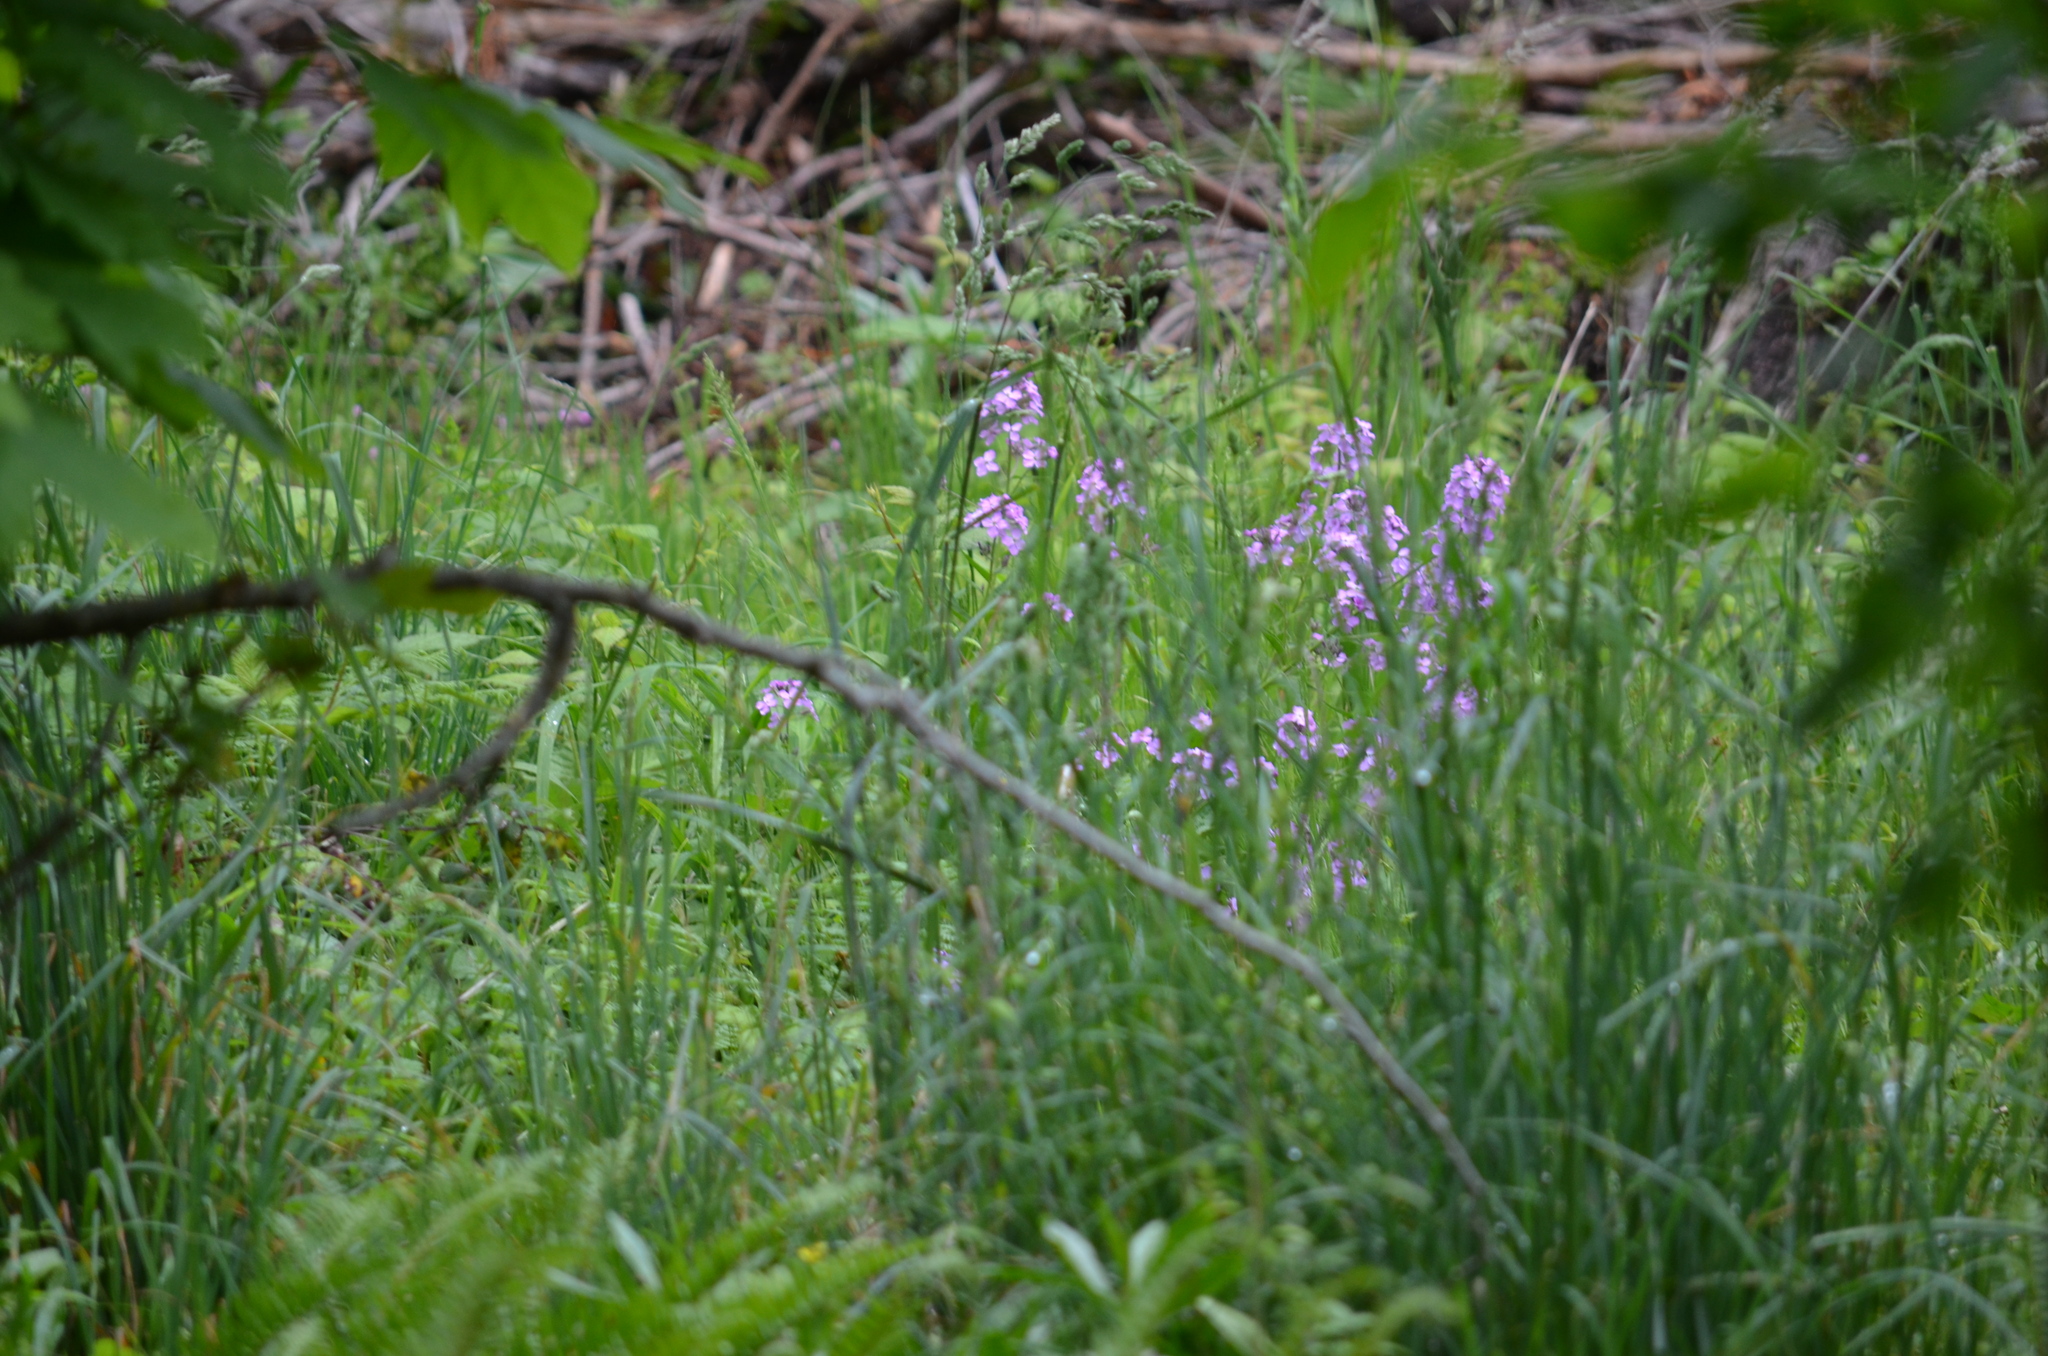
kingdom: Plantae
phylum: Tracheophyta
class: Magnoliopsida
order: Brassicales
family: Brassicaceae
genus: Hesperis
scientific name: Hesperis matronalis
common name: Dame's-violet
